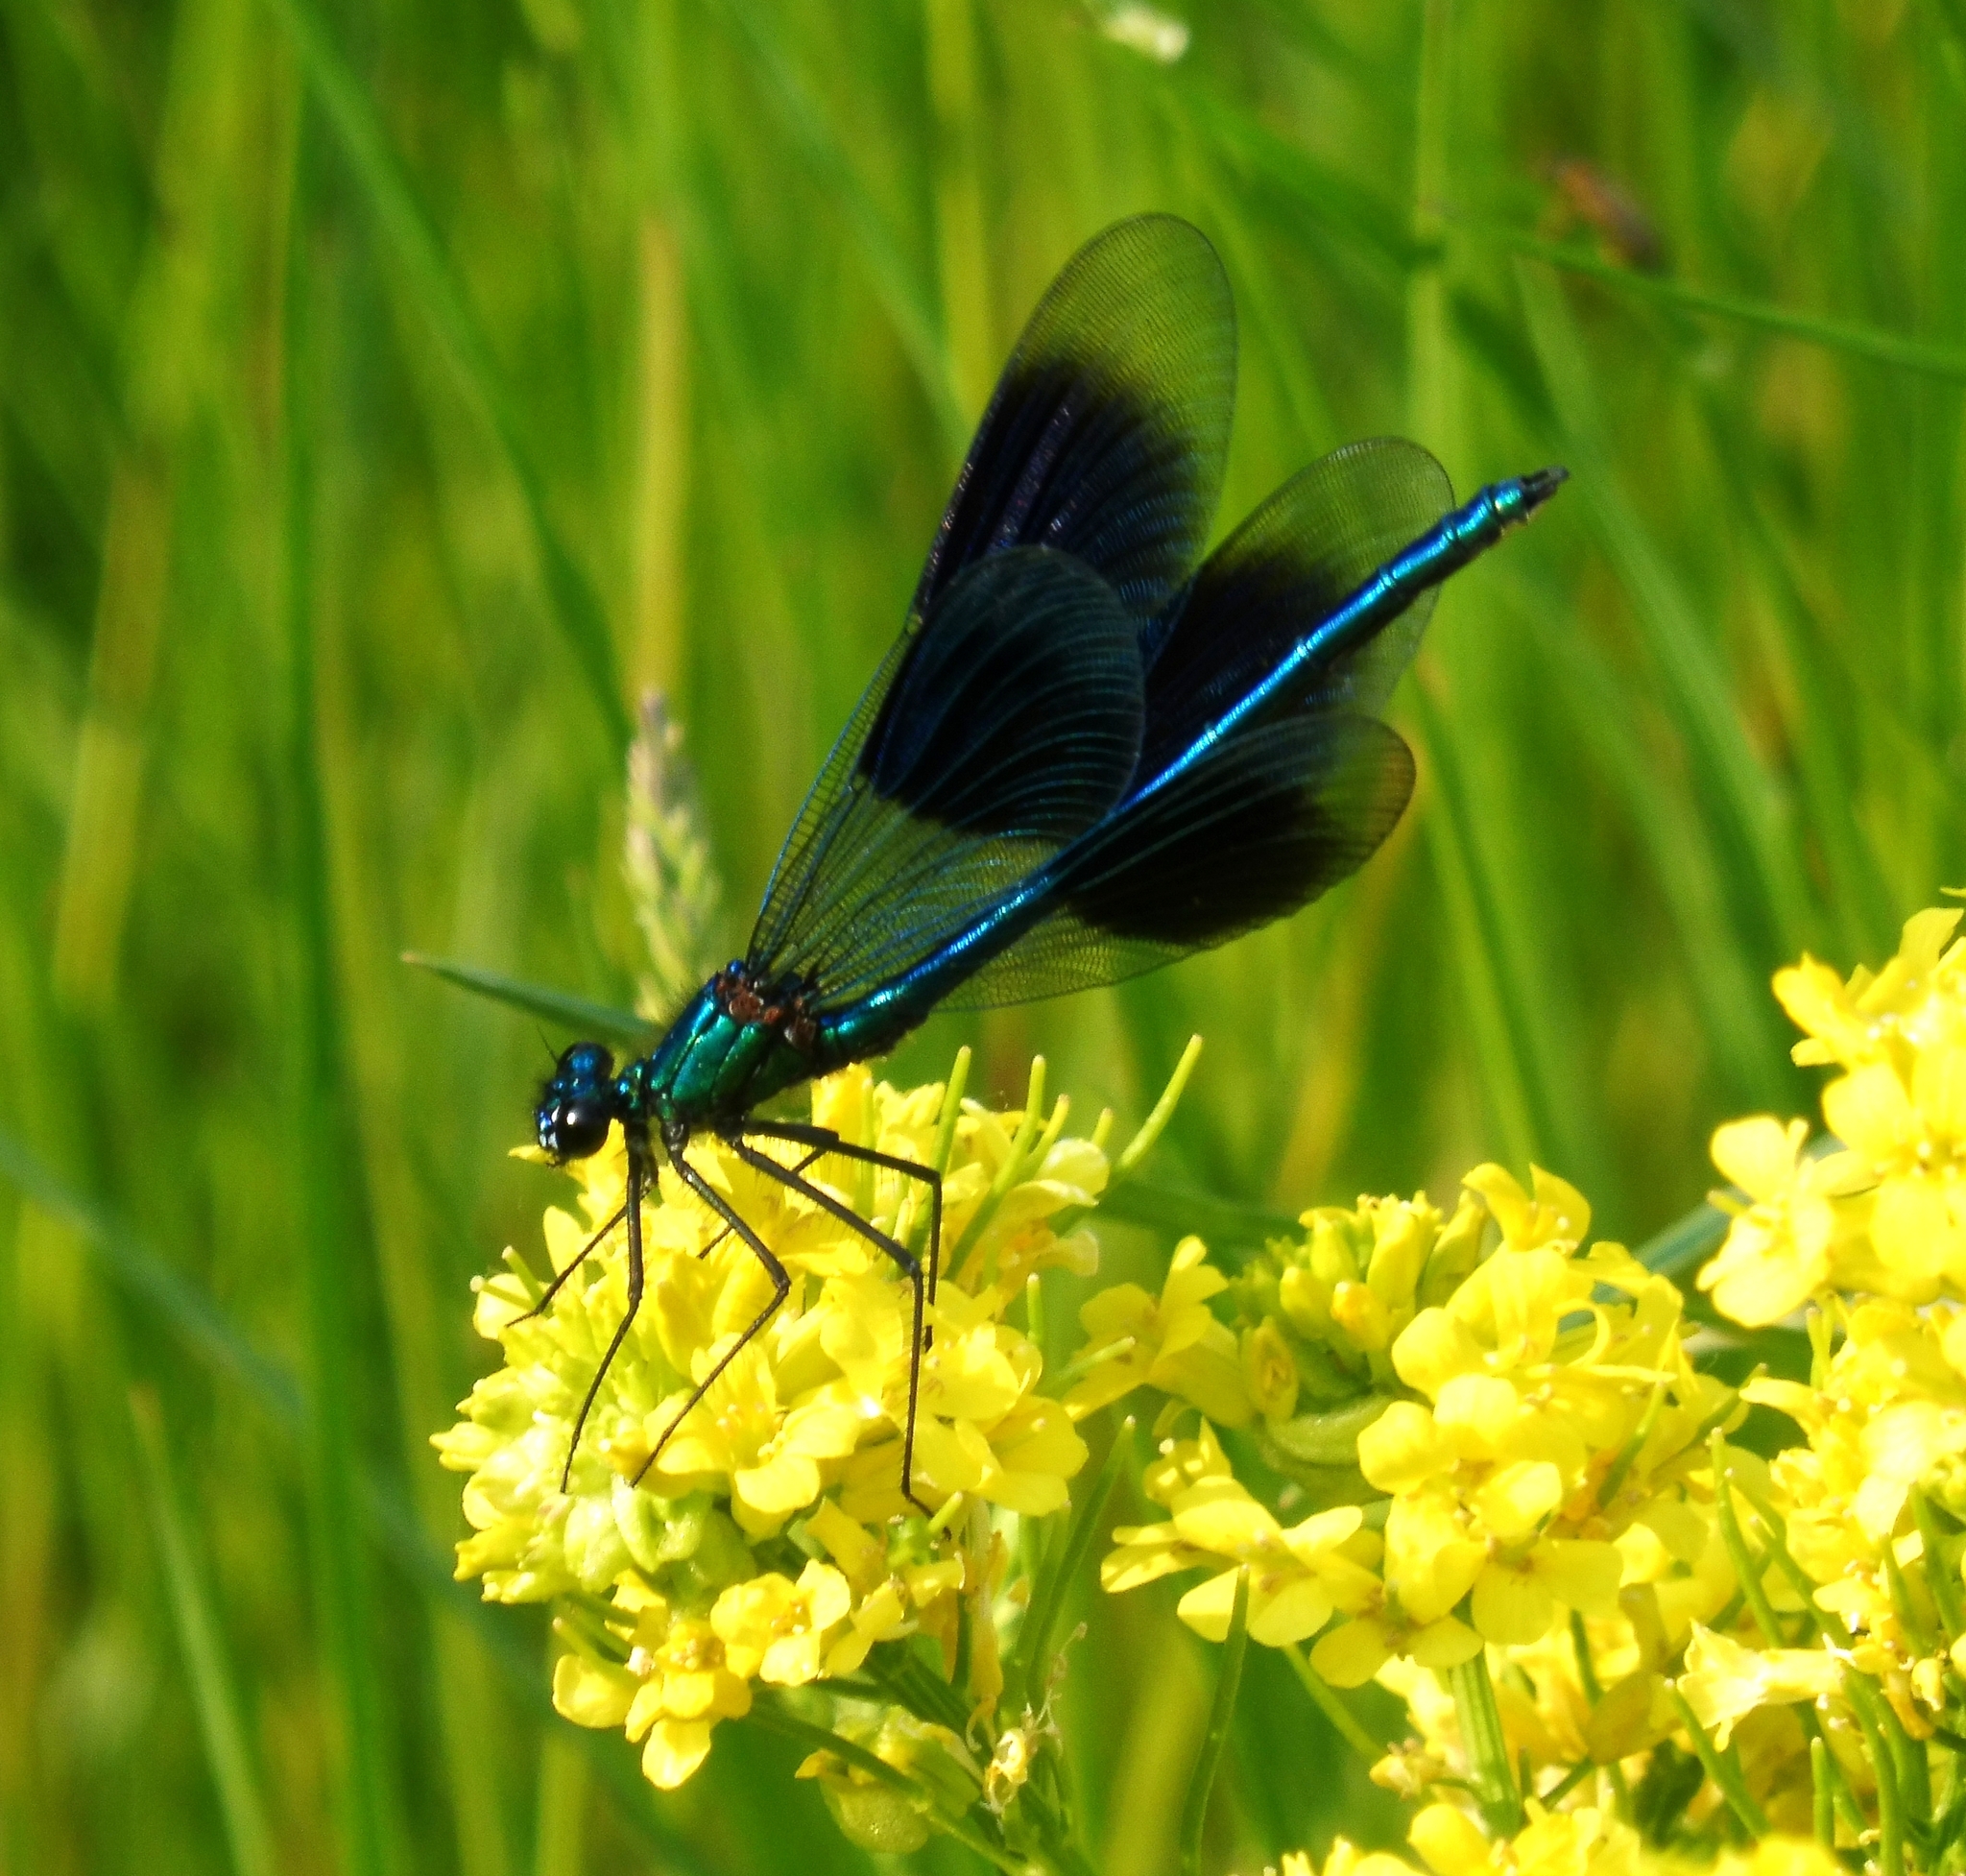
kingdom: Animalia
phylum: Arthropoda
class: Insecta
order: Odonata
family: Calopterygidae
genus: Calopteryx
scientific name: Calopteryx splendens
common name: Banded demoiselle
